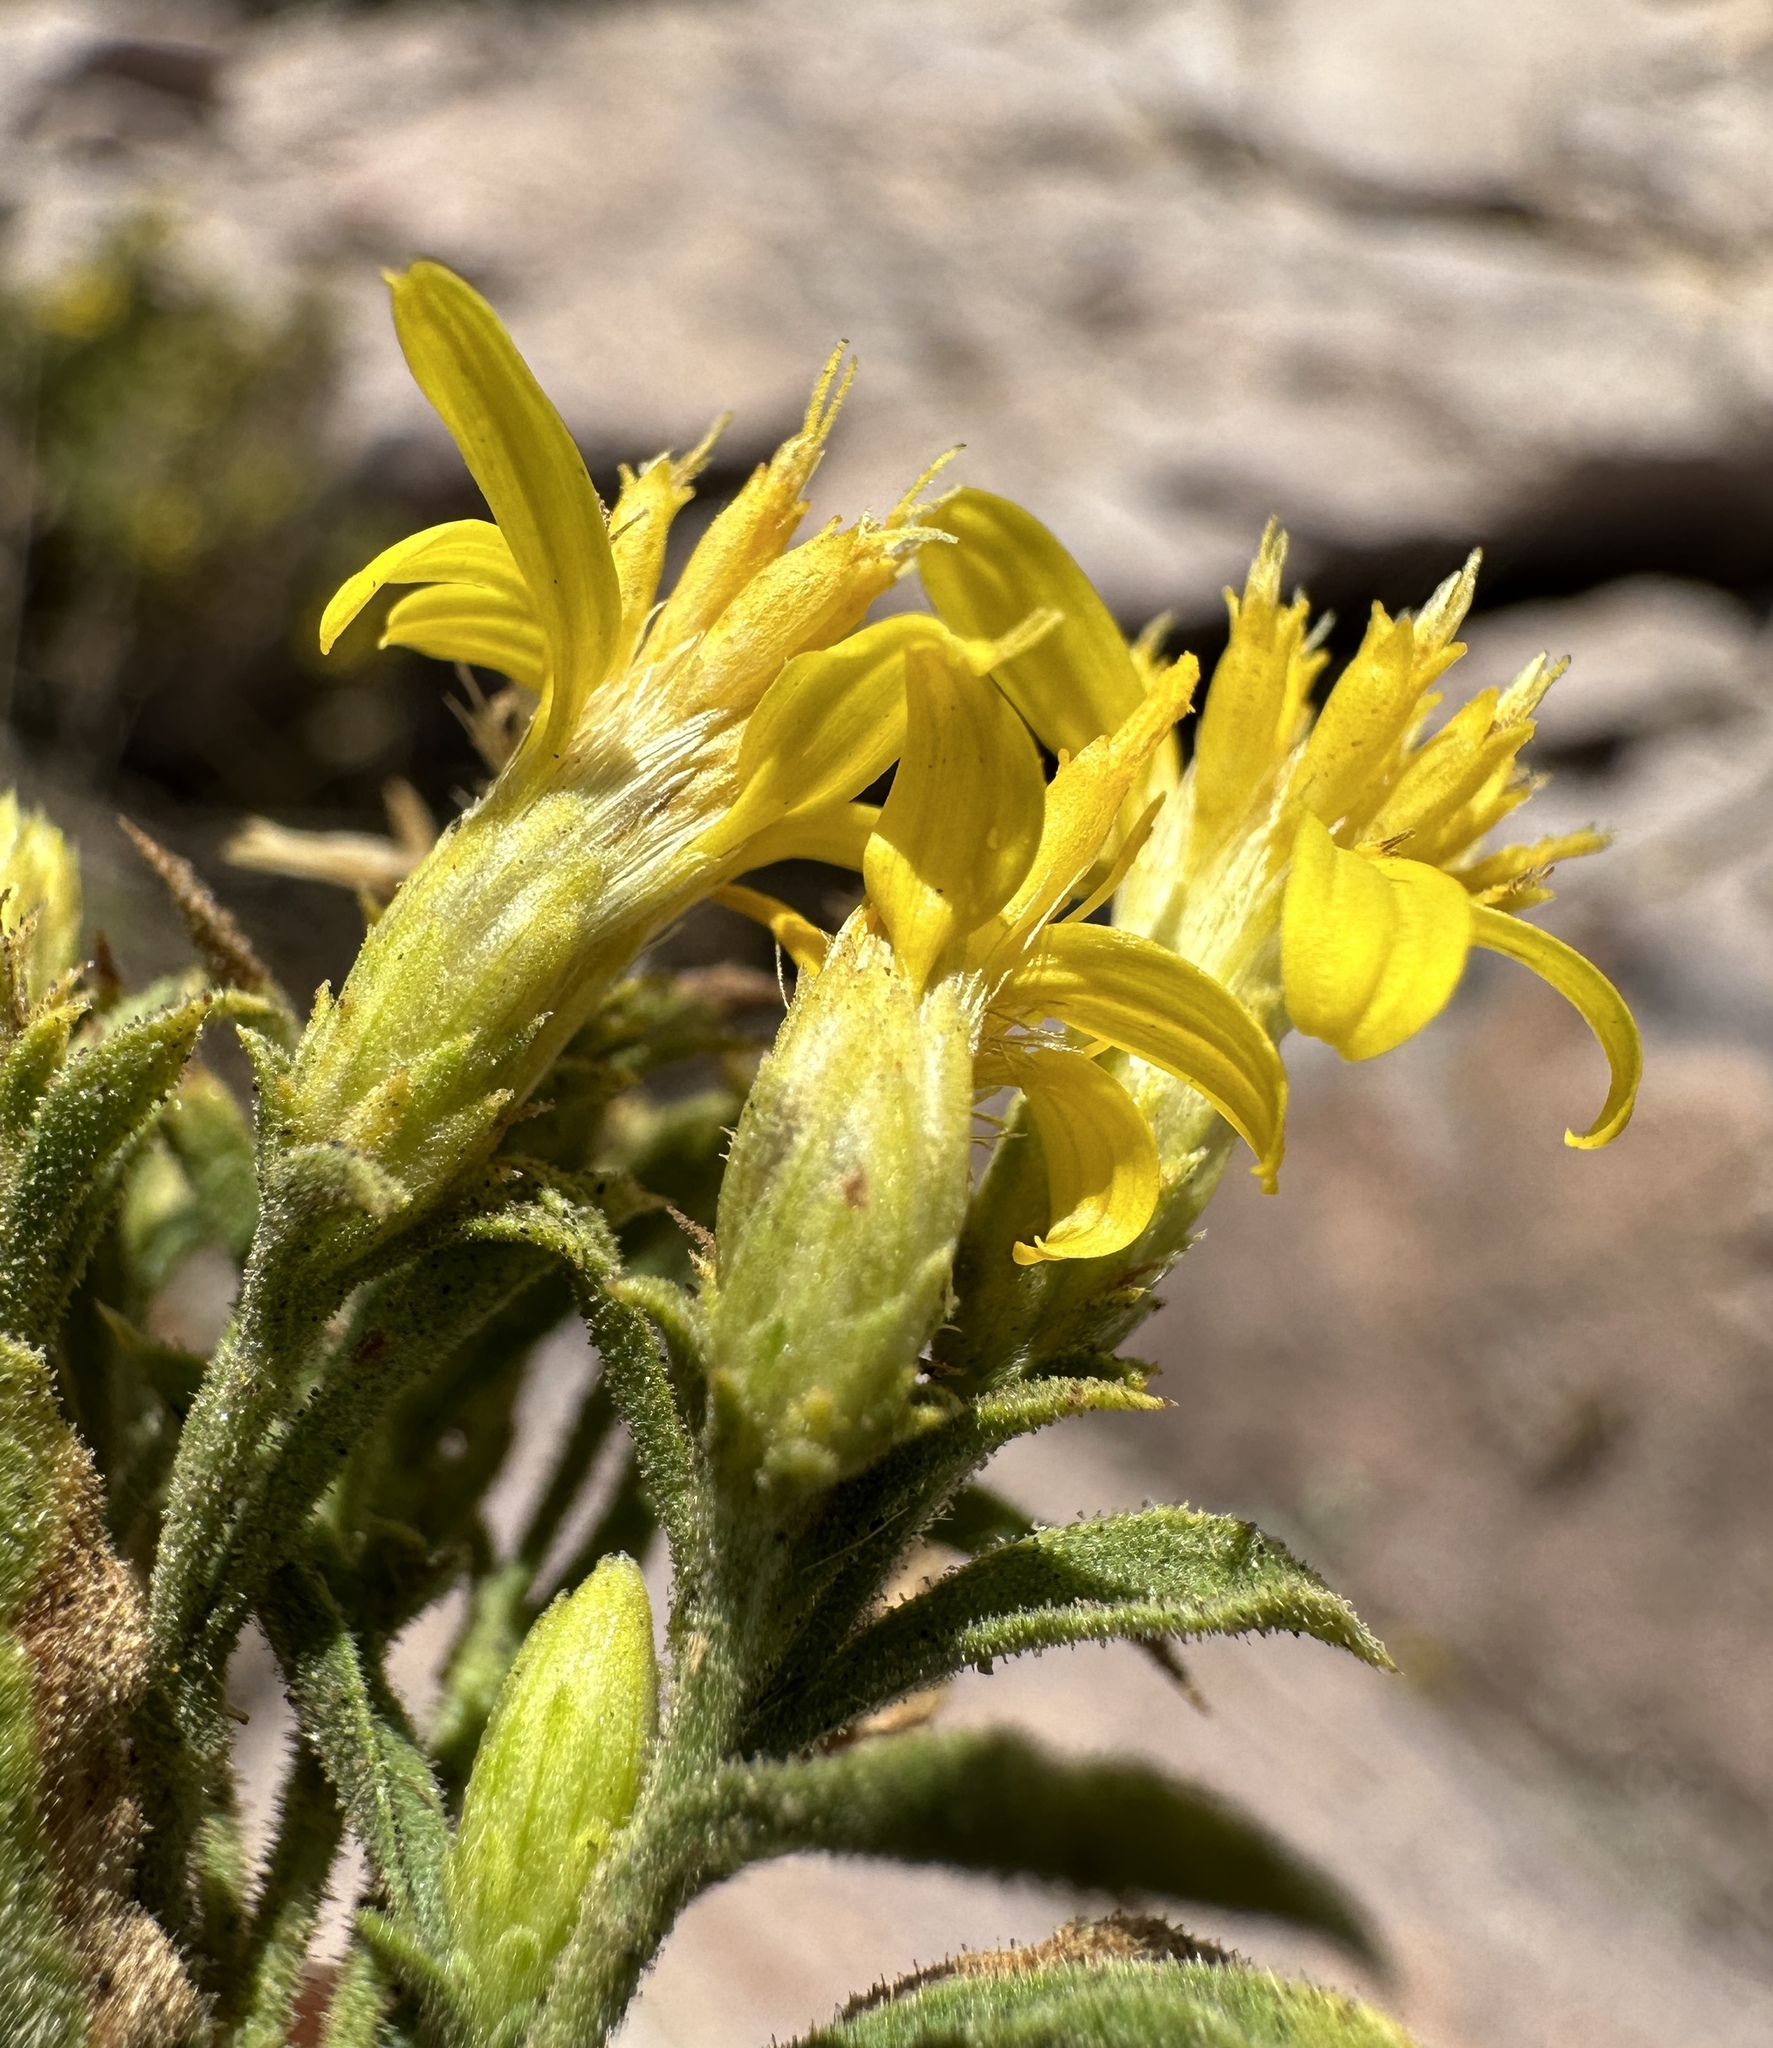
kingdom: Plantae
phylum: Tracheophyta
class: Magnoliopsida
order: Asterales
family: Asteraceae
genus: Ericameria
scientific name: Ericameria obovata
